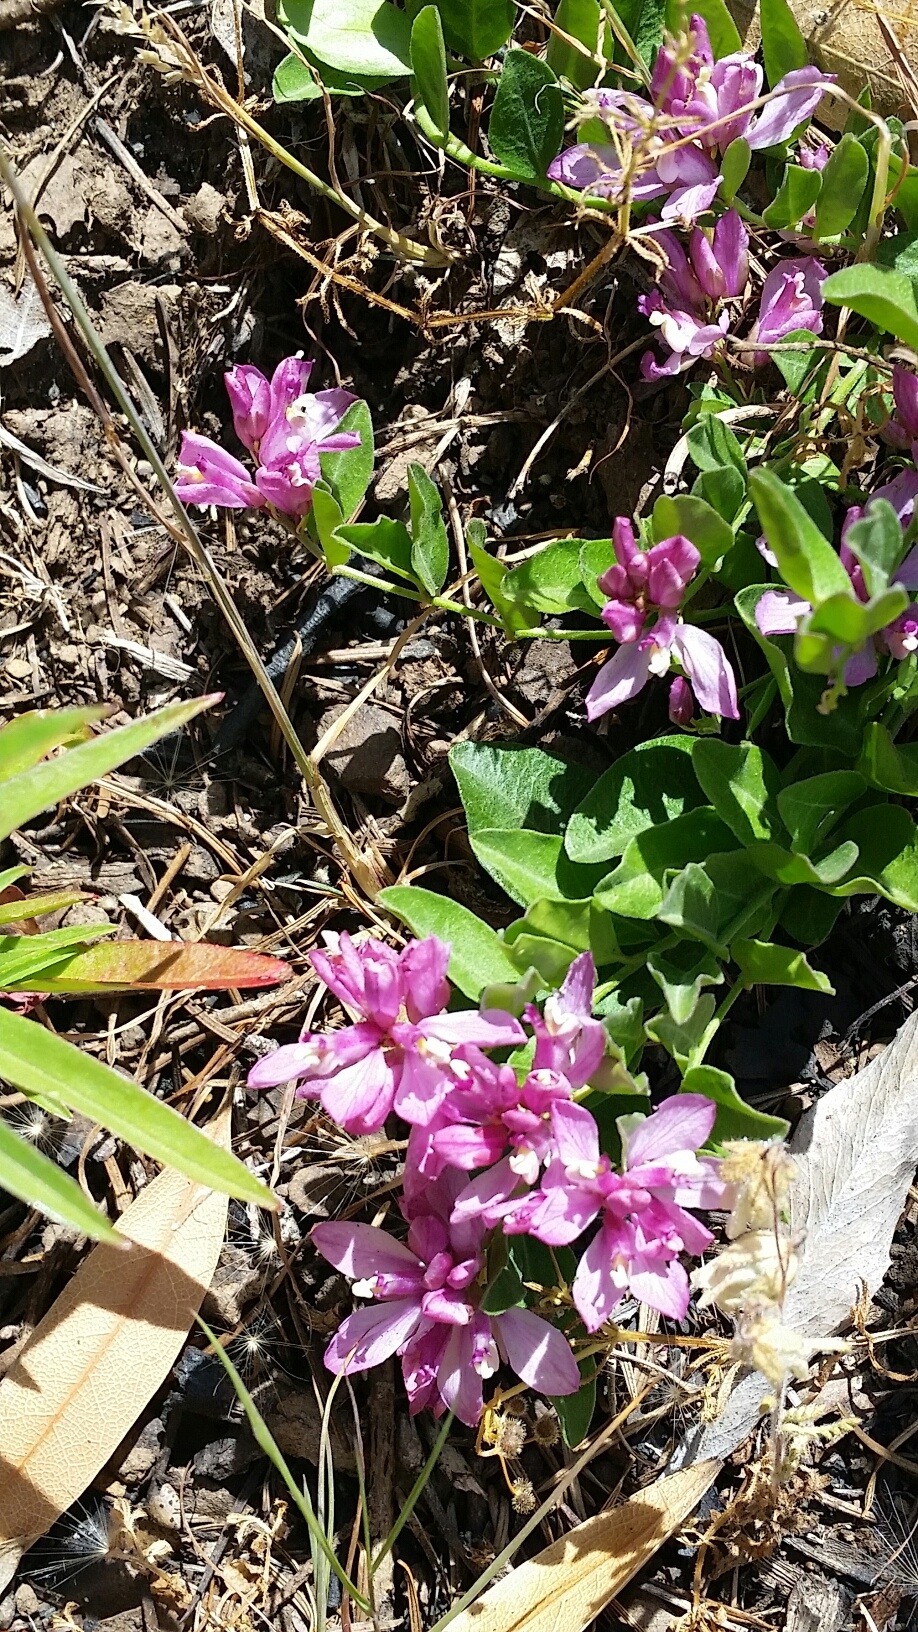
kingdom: Plantae
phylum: Tracheophyta
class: Magnoliopsida
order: Fabales
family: Polygalaceae
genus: Rhinotropis
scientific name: Rhinotropis californica
